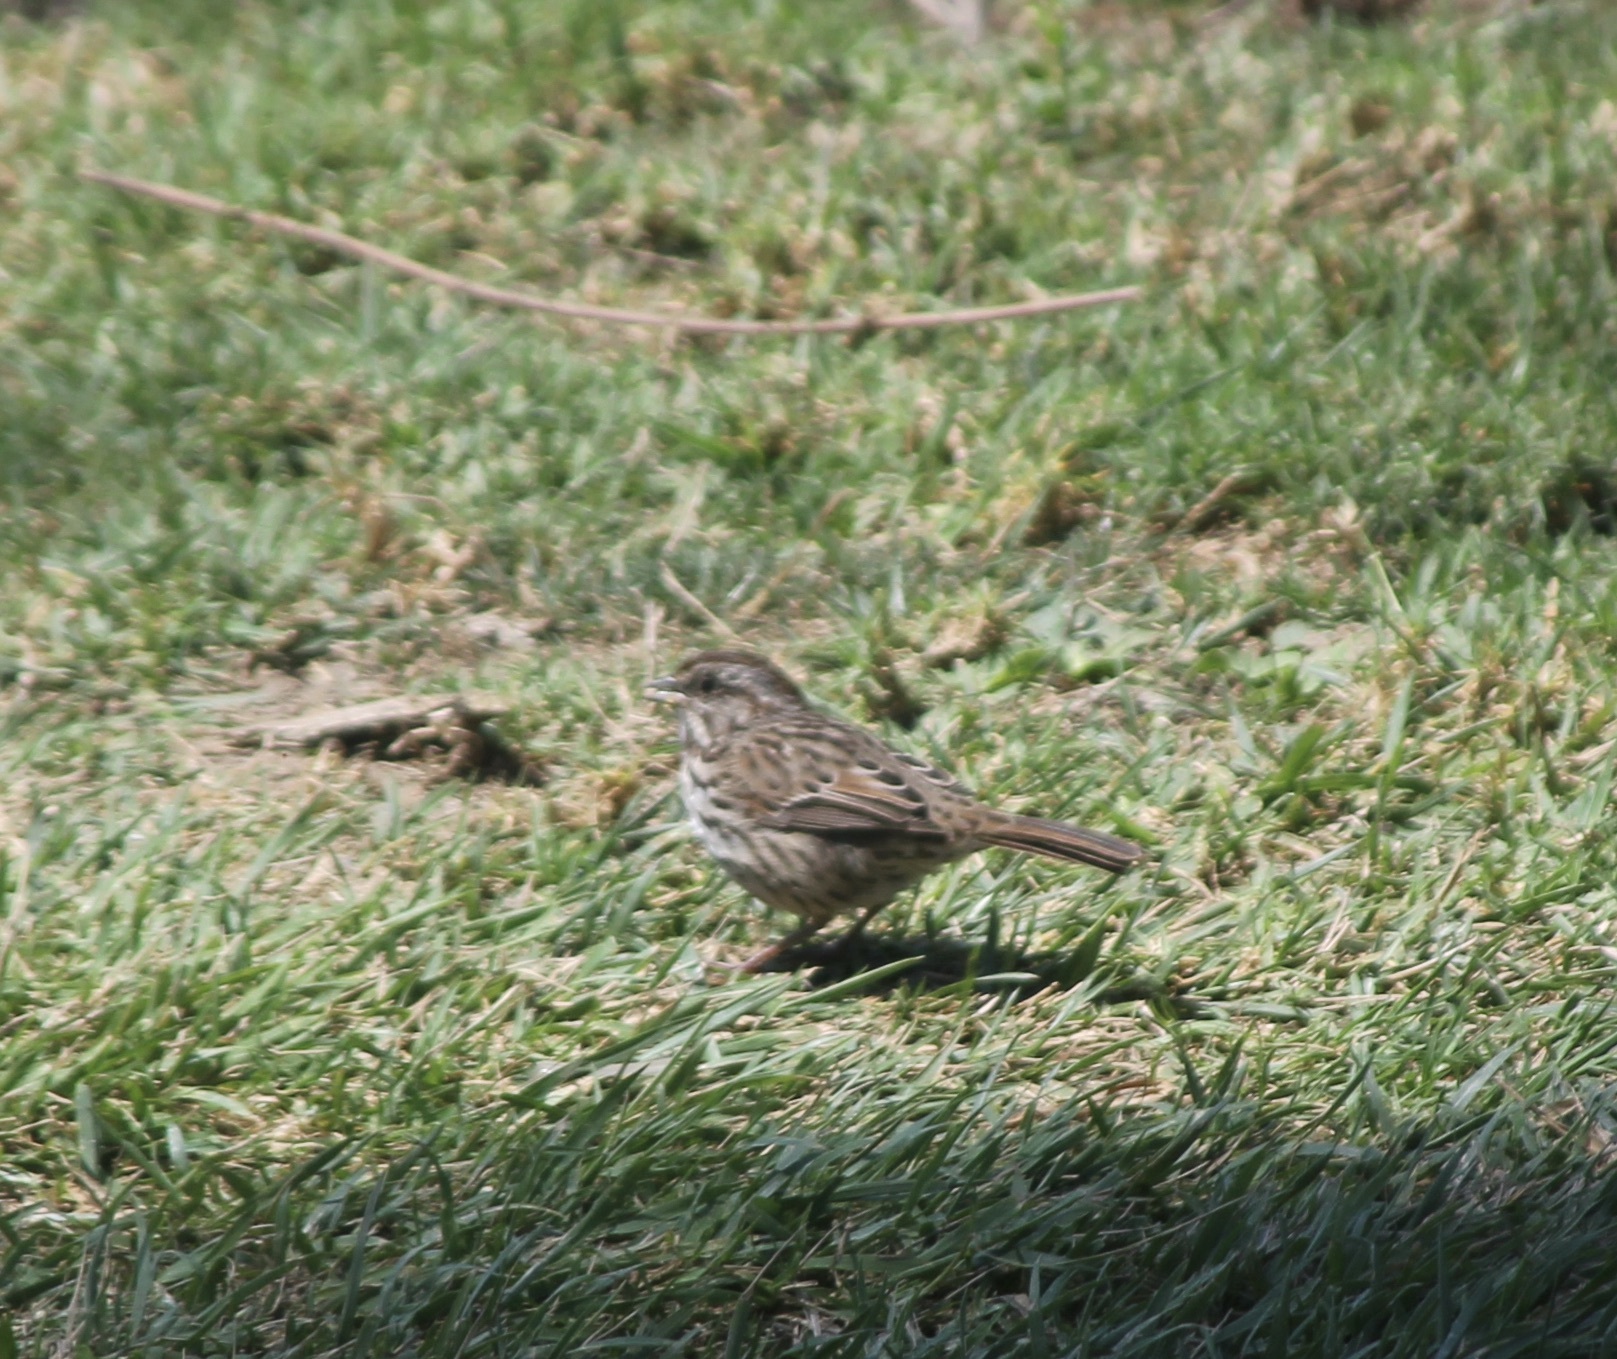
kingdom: Animalia
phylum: Chordata
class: Aves
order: Passeriformes
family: Passerellidae
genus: Melospiza
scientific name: Melospiza melodia
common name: Song sparrow
